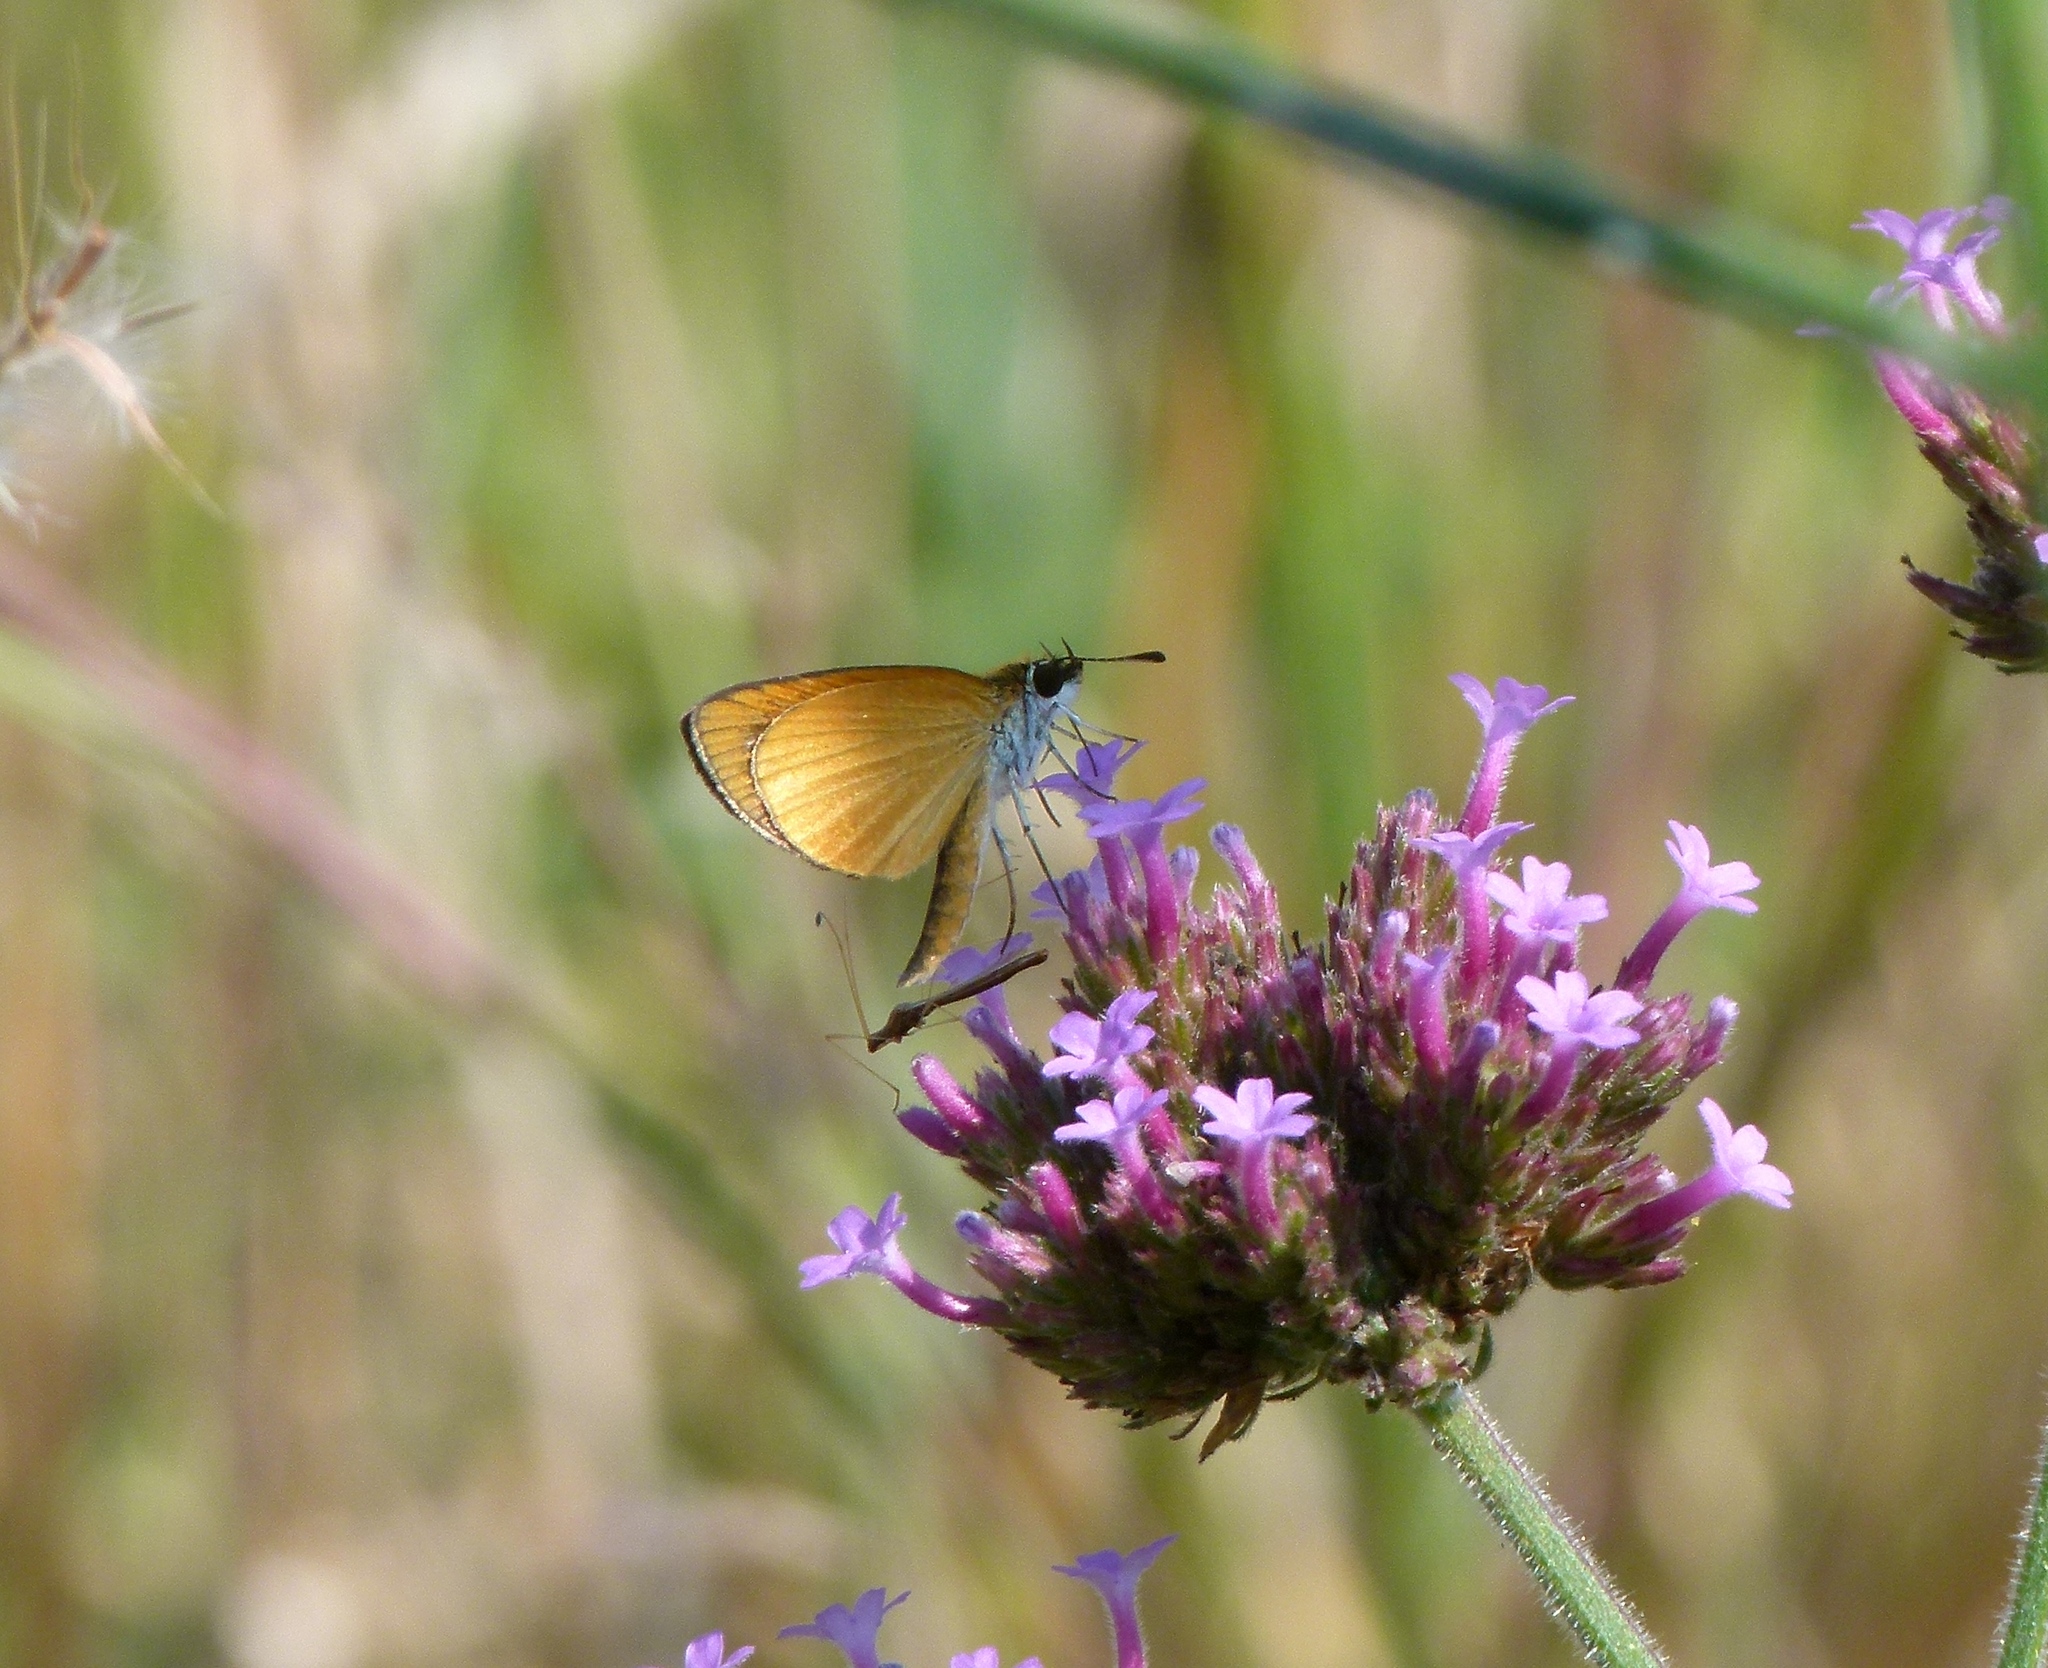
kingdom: Animalia
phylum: Arthropoda
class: Insecta
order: Lepidoptera
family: Hesperiidae
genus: Ancyloxypha
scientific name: Ancyloxypha numitor
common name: Least skipper
